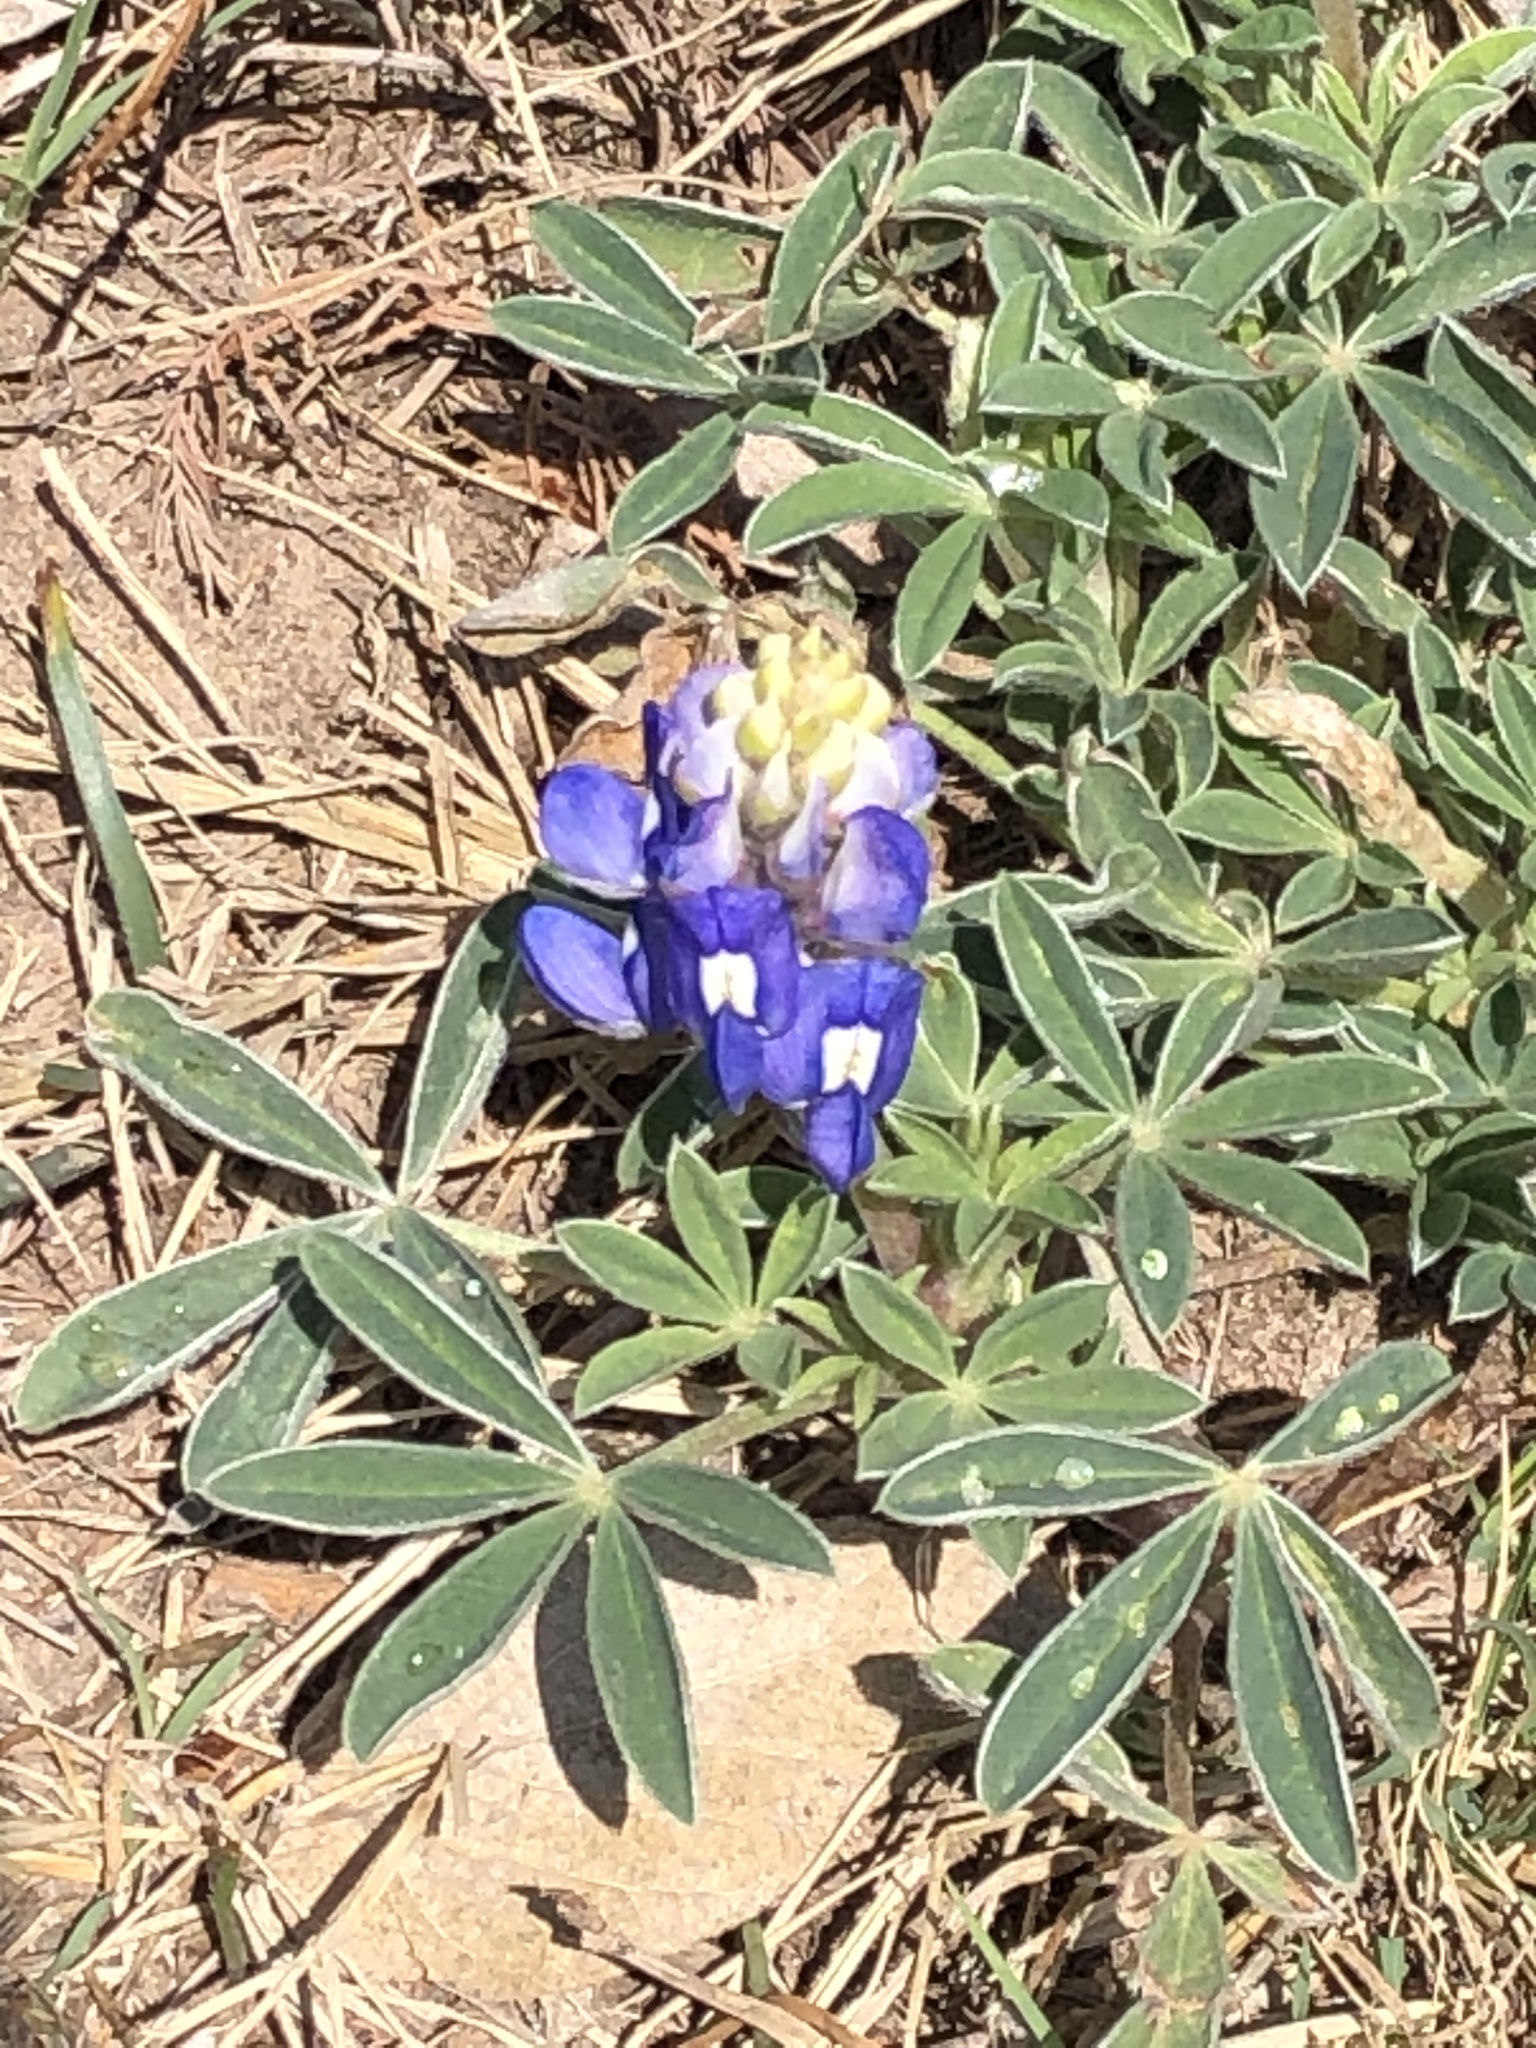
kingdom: Plantae
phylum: Tracheophyta
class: Magnoliopsida
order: Fabales
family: Fabaceae
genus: Lupinus
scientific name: Lupinus texensis
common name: Texas bluebonnet
